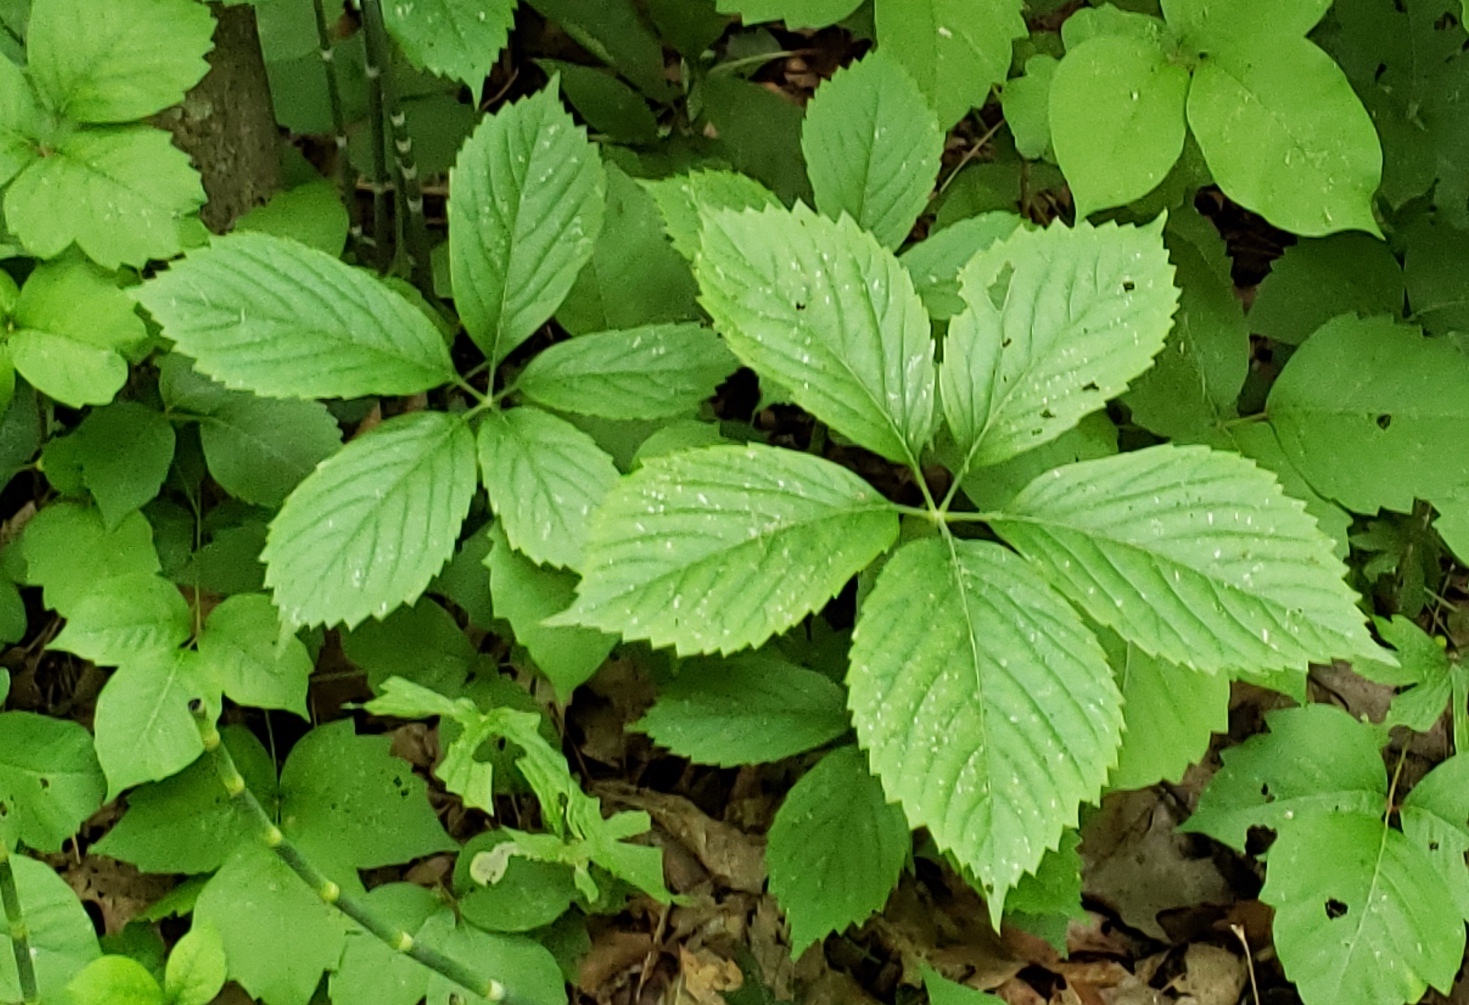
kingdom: Plantae
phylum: Tracheophyta
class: Magnoliopsida
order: Vitales
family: Vitaceae
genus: Parthenocissus
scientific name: Parthenocissus inserta
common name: False virginia-creeper
